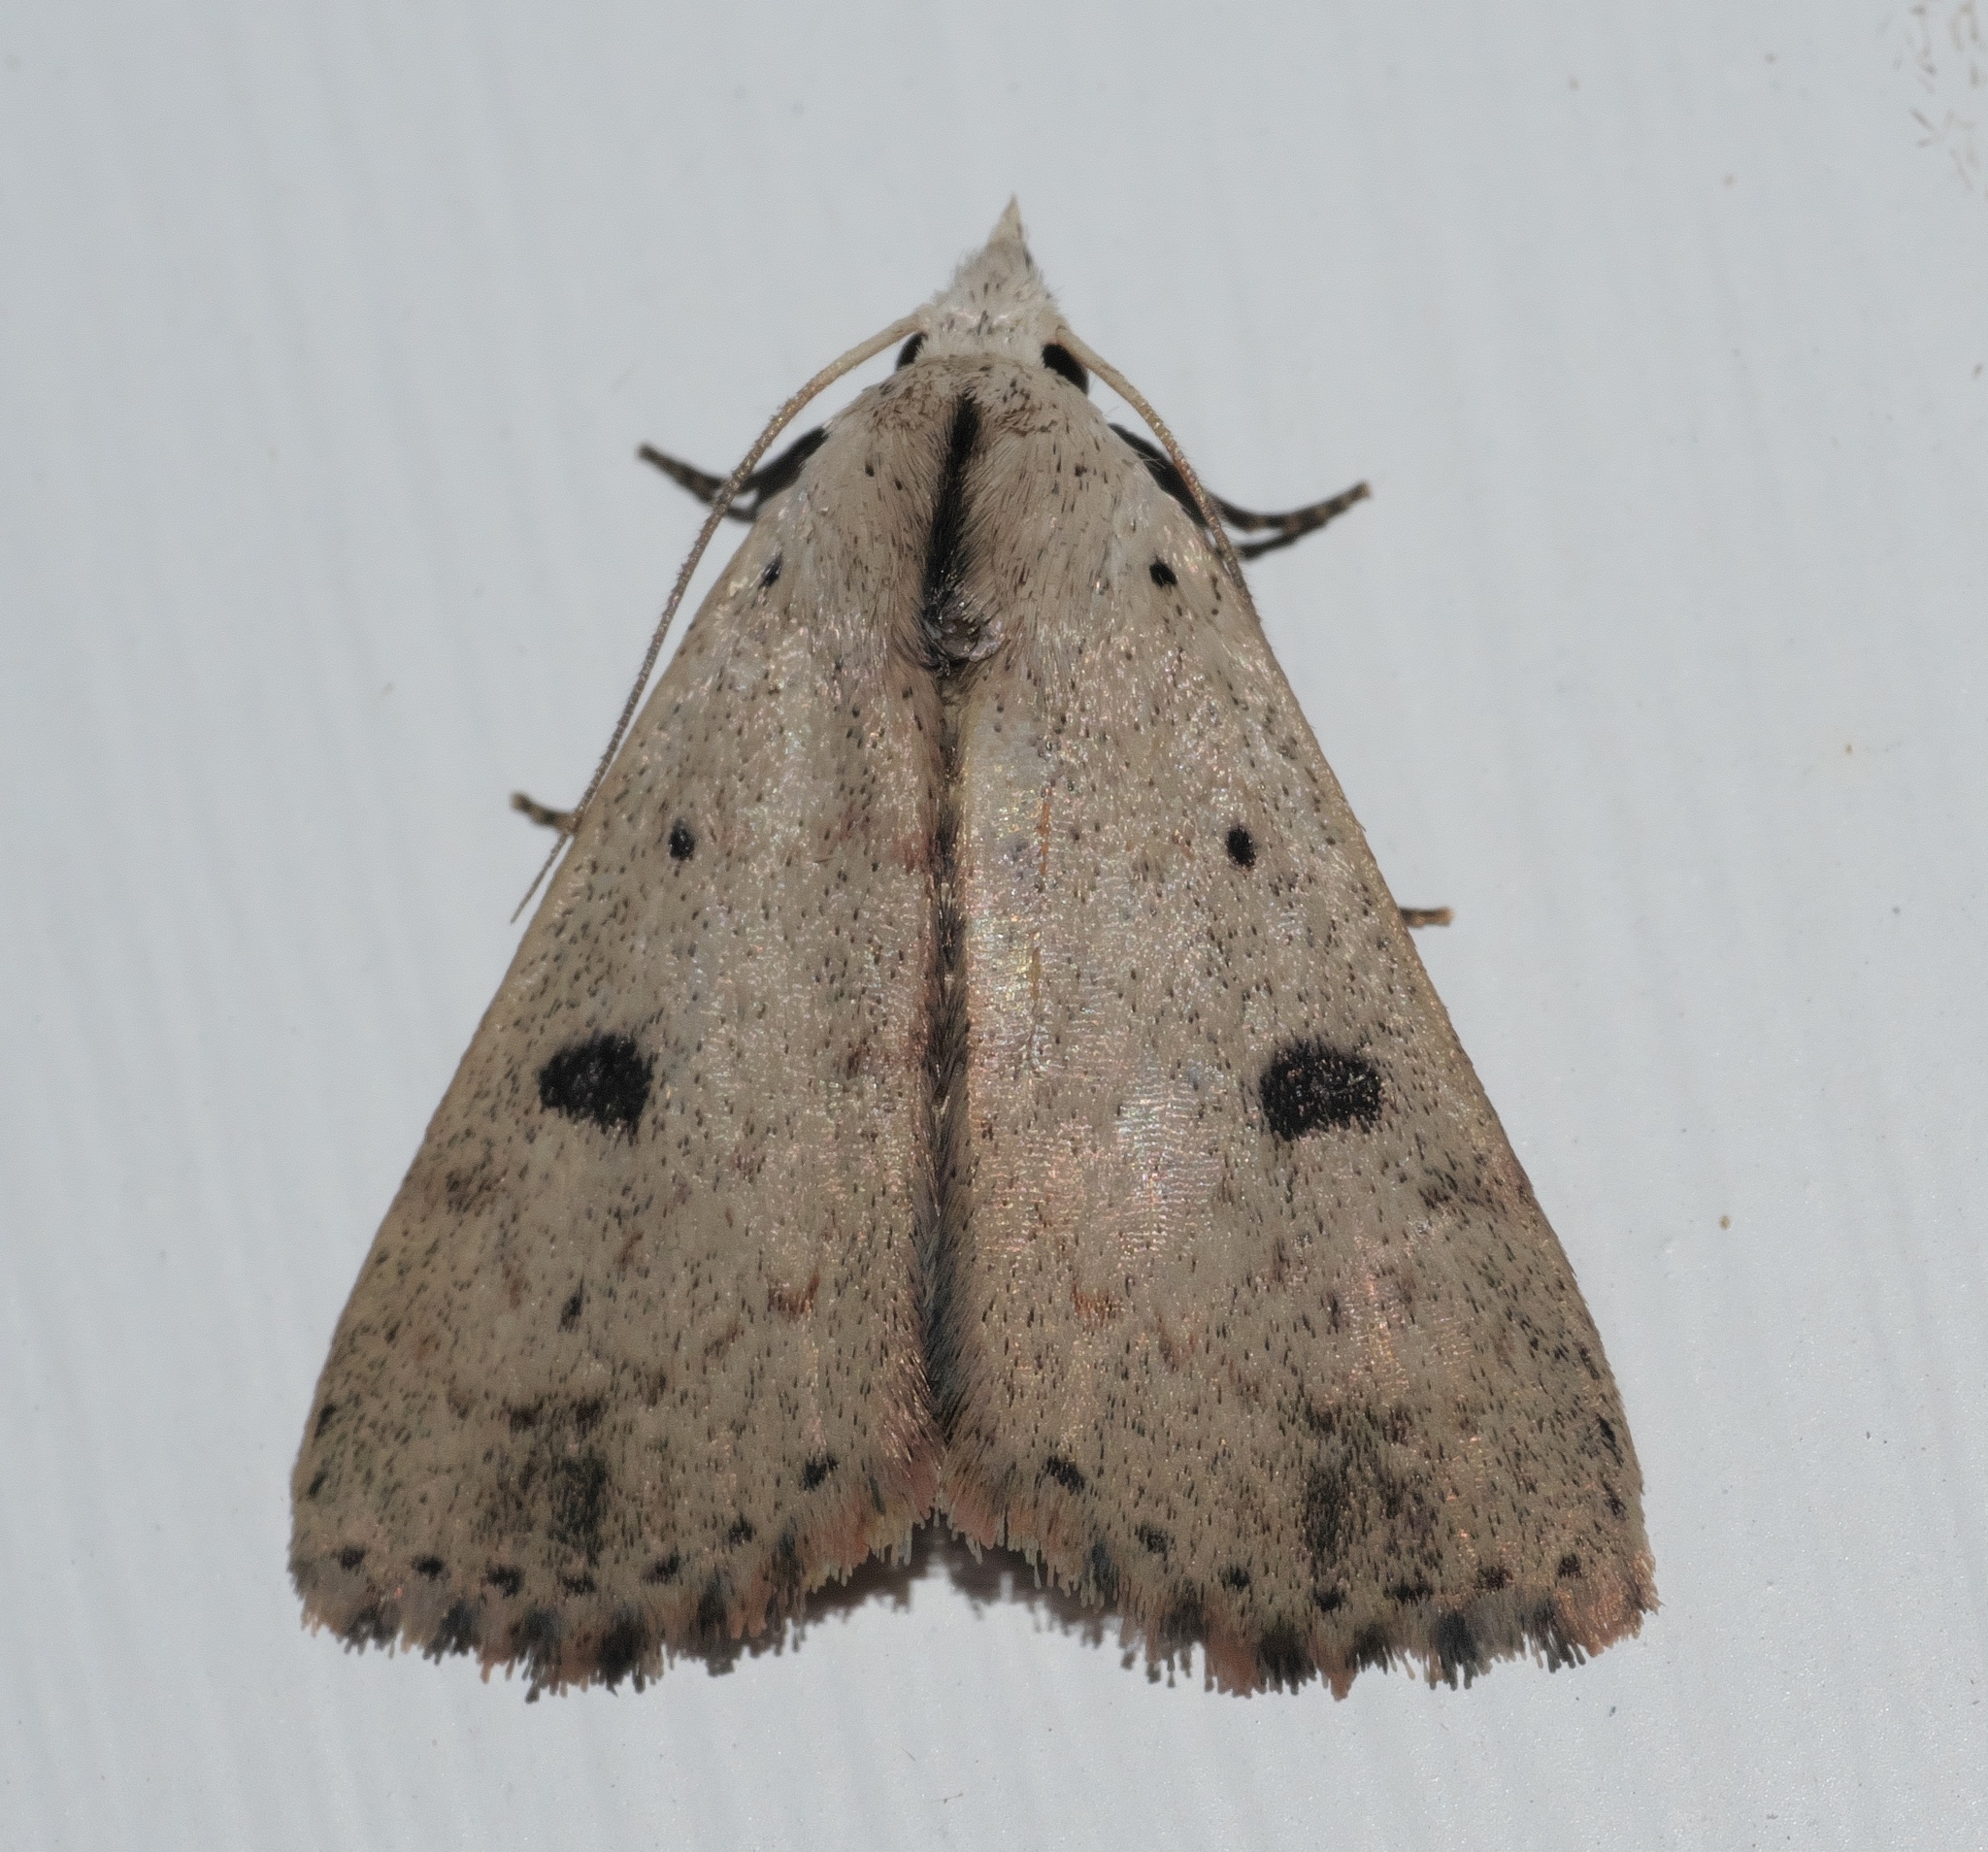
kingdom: Animalia
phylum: Arthropoda
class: Insecta
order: Lepidoptera
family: Erebidae
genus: Scolecocampa
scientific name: Scolecocampa liburna
